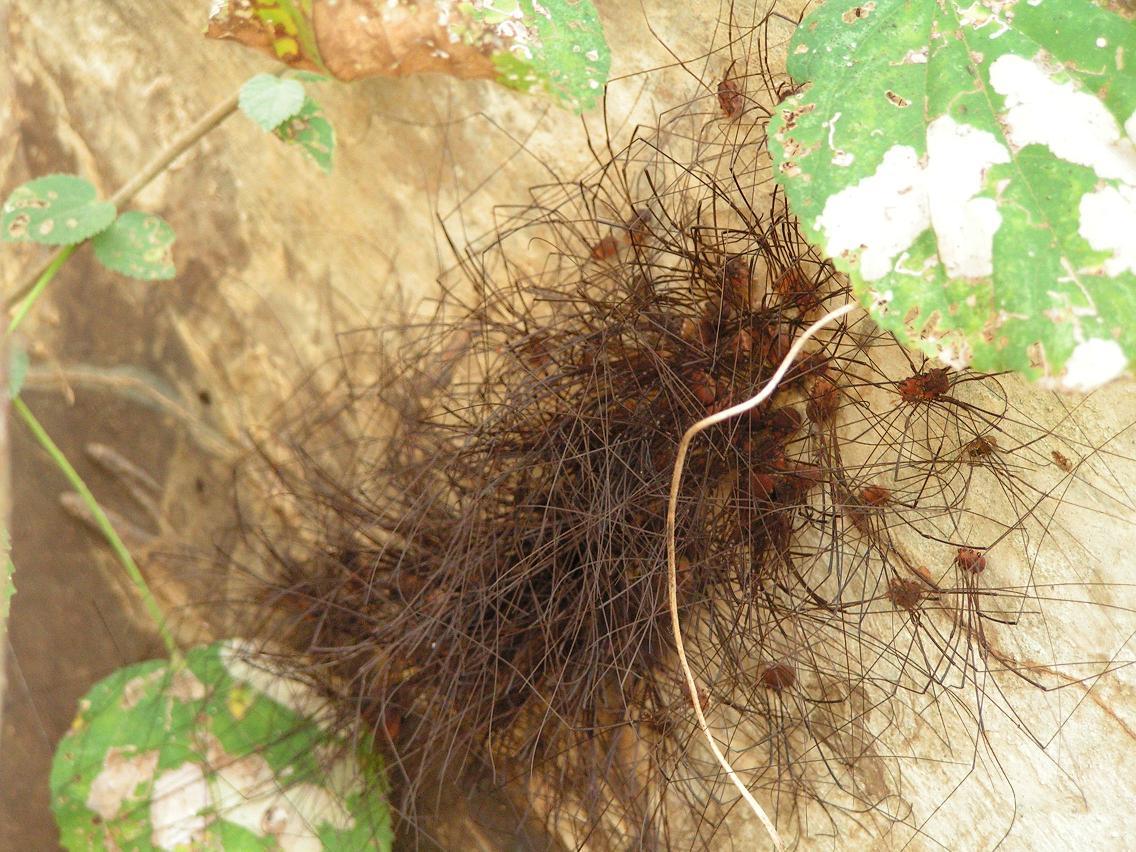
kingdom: Animalia
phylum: Arthropoda
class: Arachnida
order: Opiliones
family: Sclerosomatidae
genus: Leiobunum
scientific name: Leiobunum
